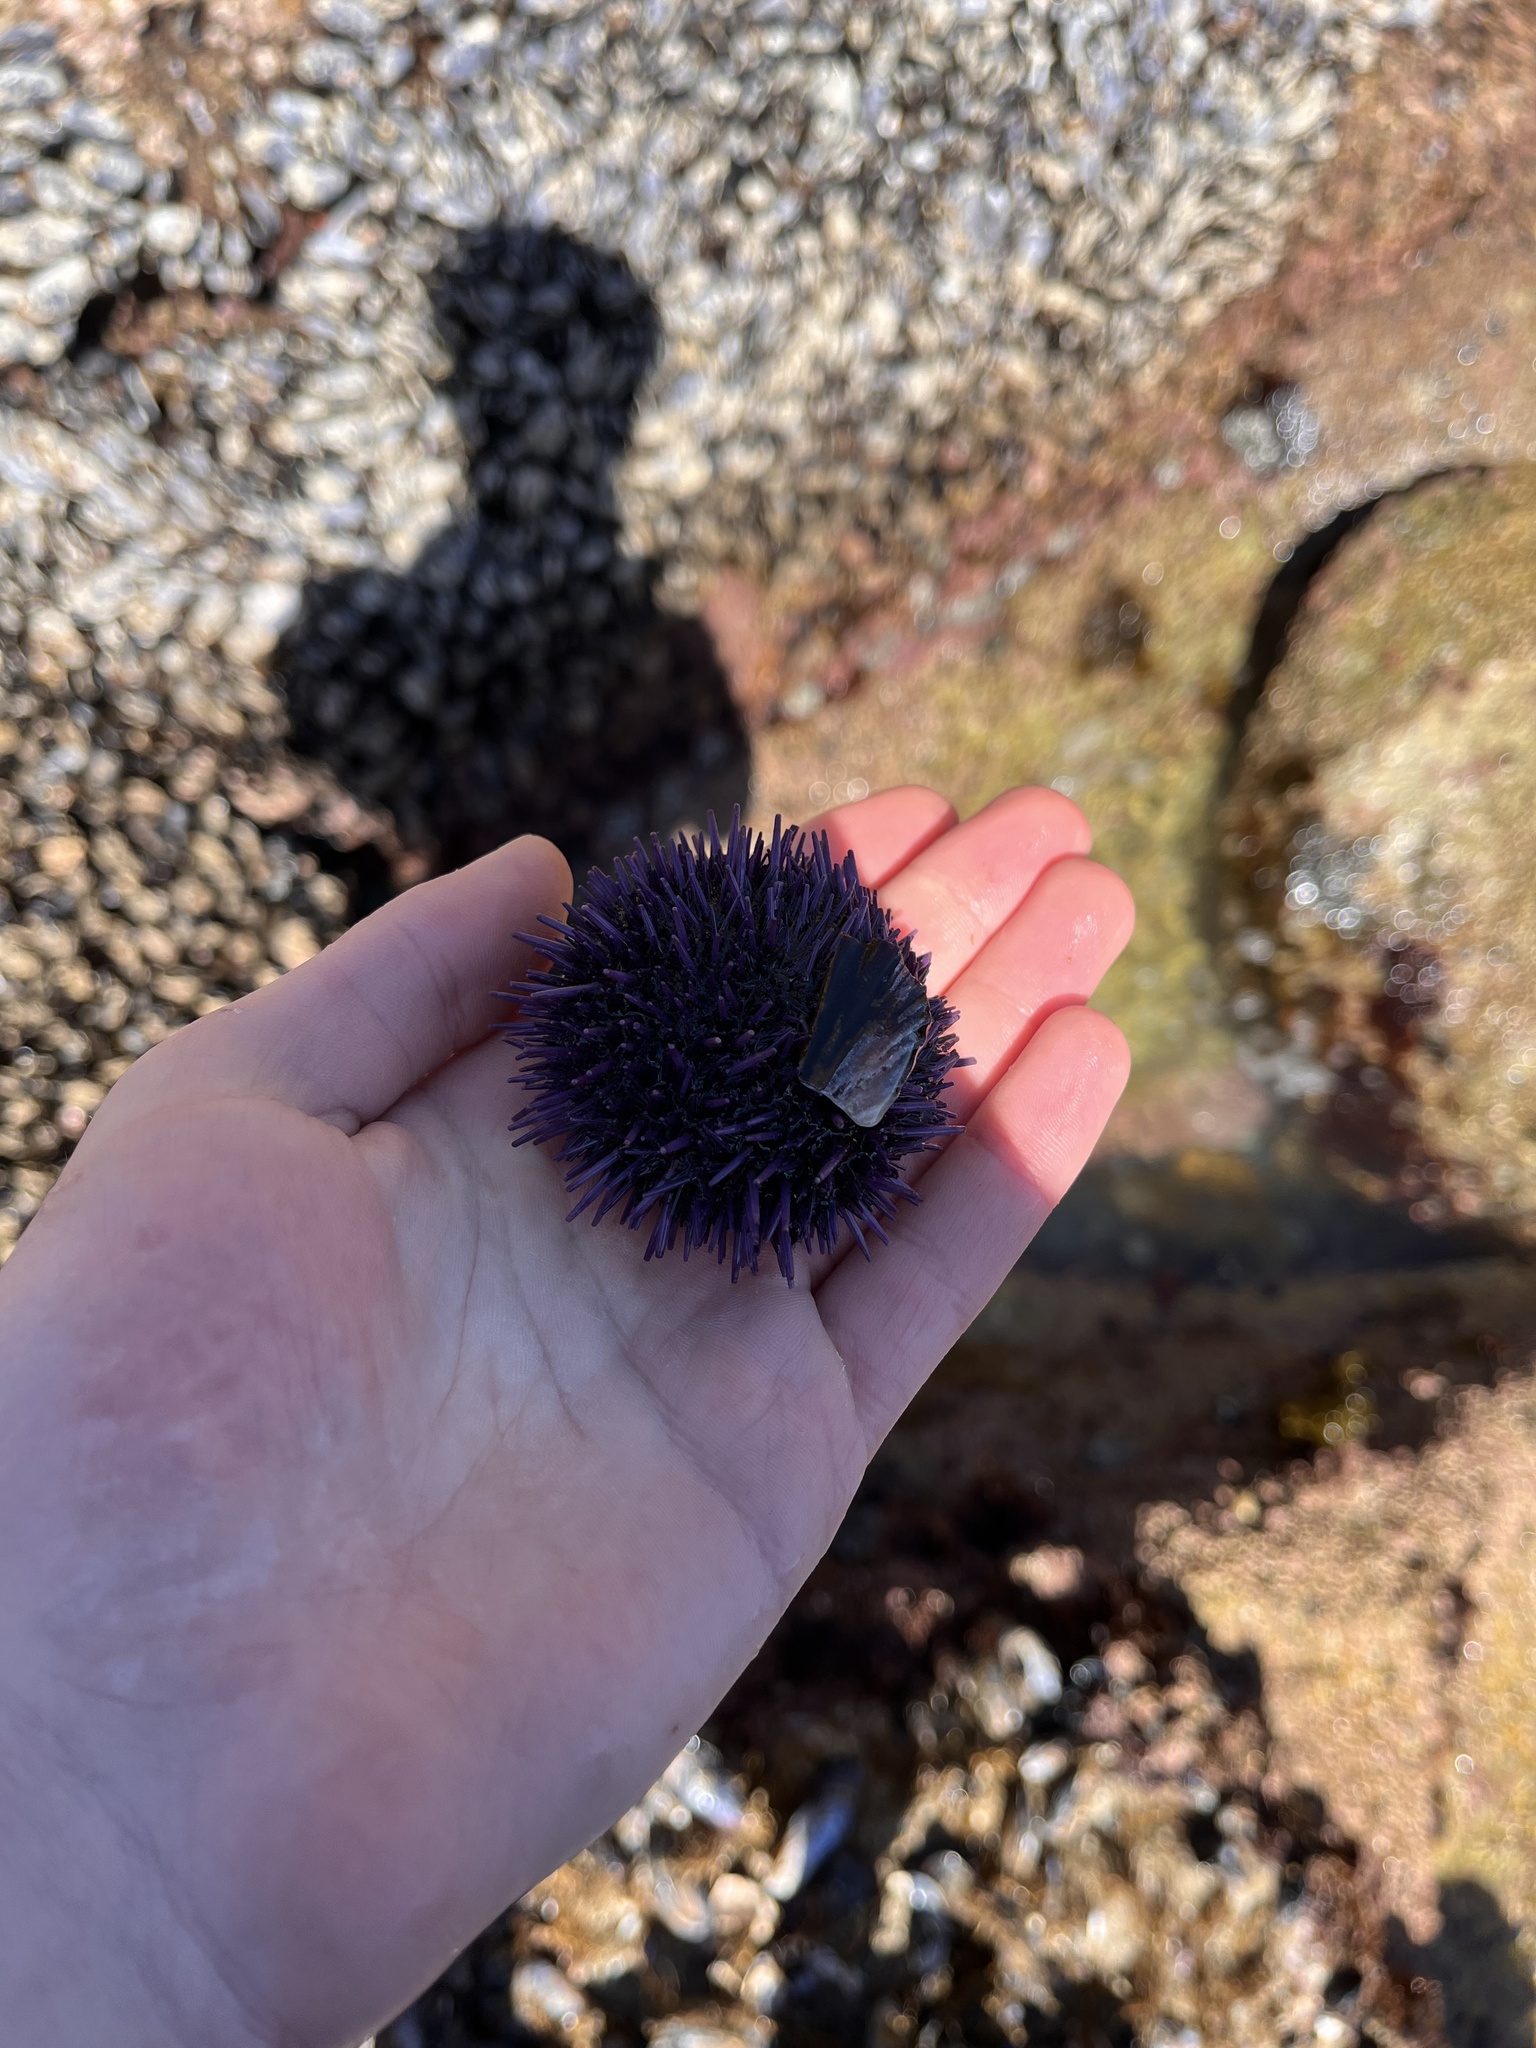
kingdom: Animalia
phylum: Echinodermata
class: Echinoidea
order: Camarodonta
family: Strongylocentrotidae
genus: Strongylocentrotus
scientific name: Strongylocentrotus purpuratus
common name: Purple sea urchin
